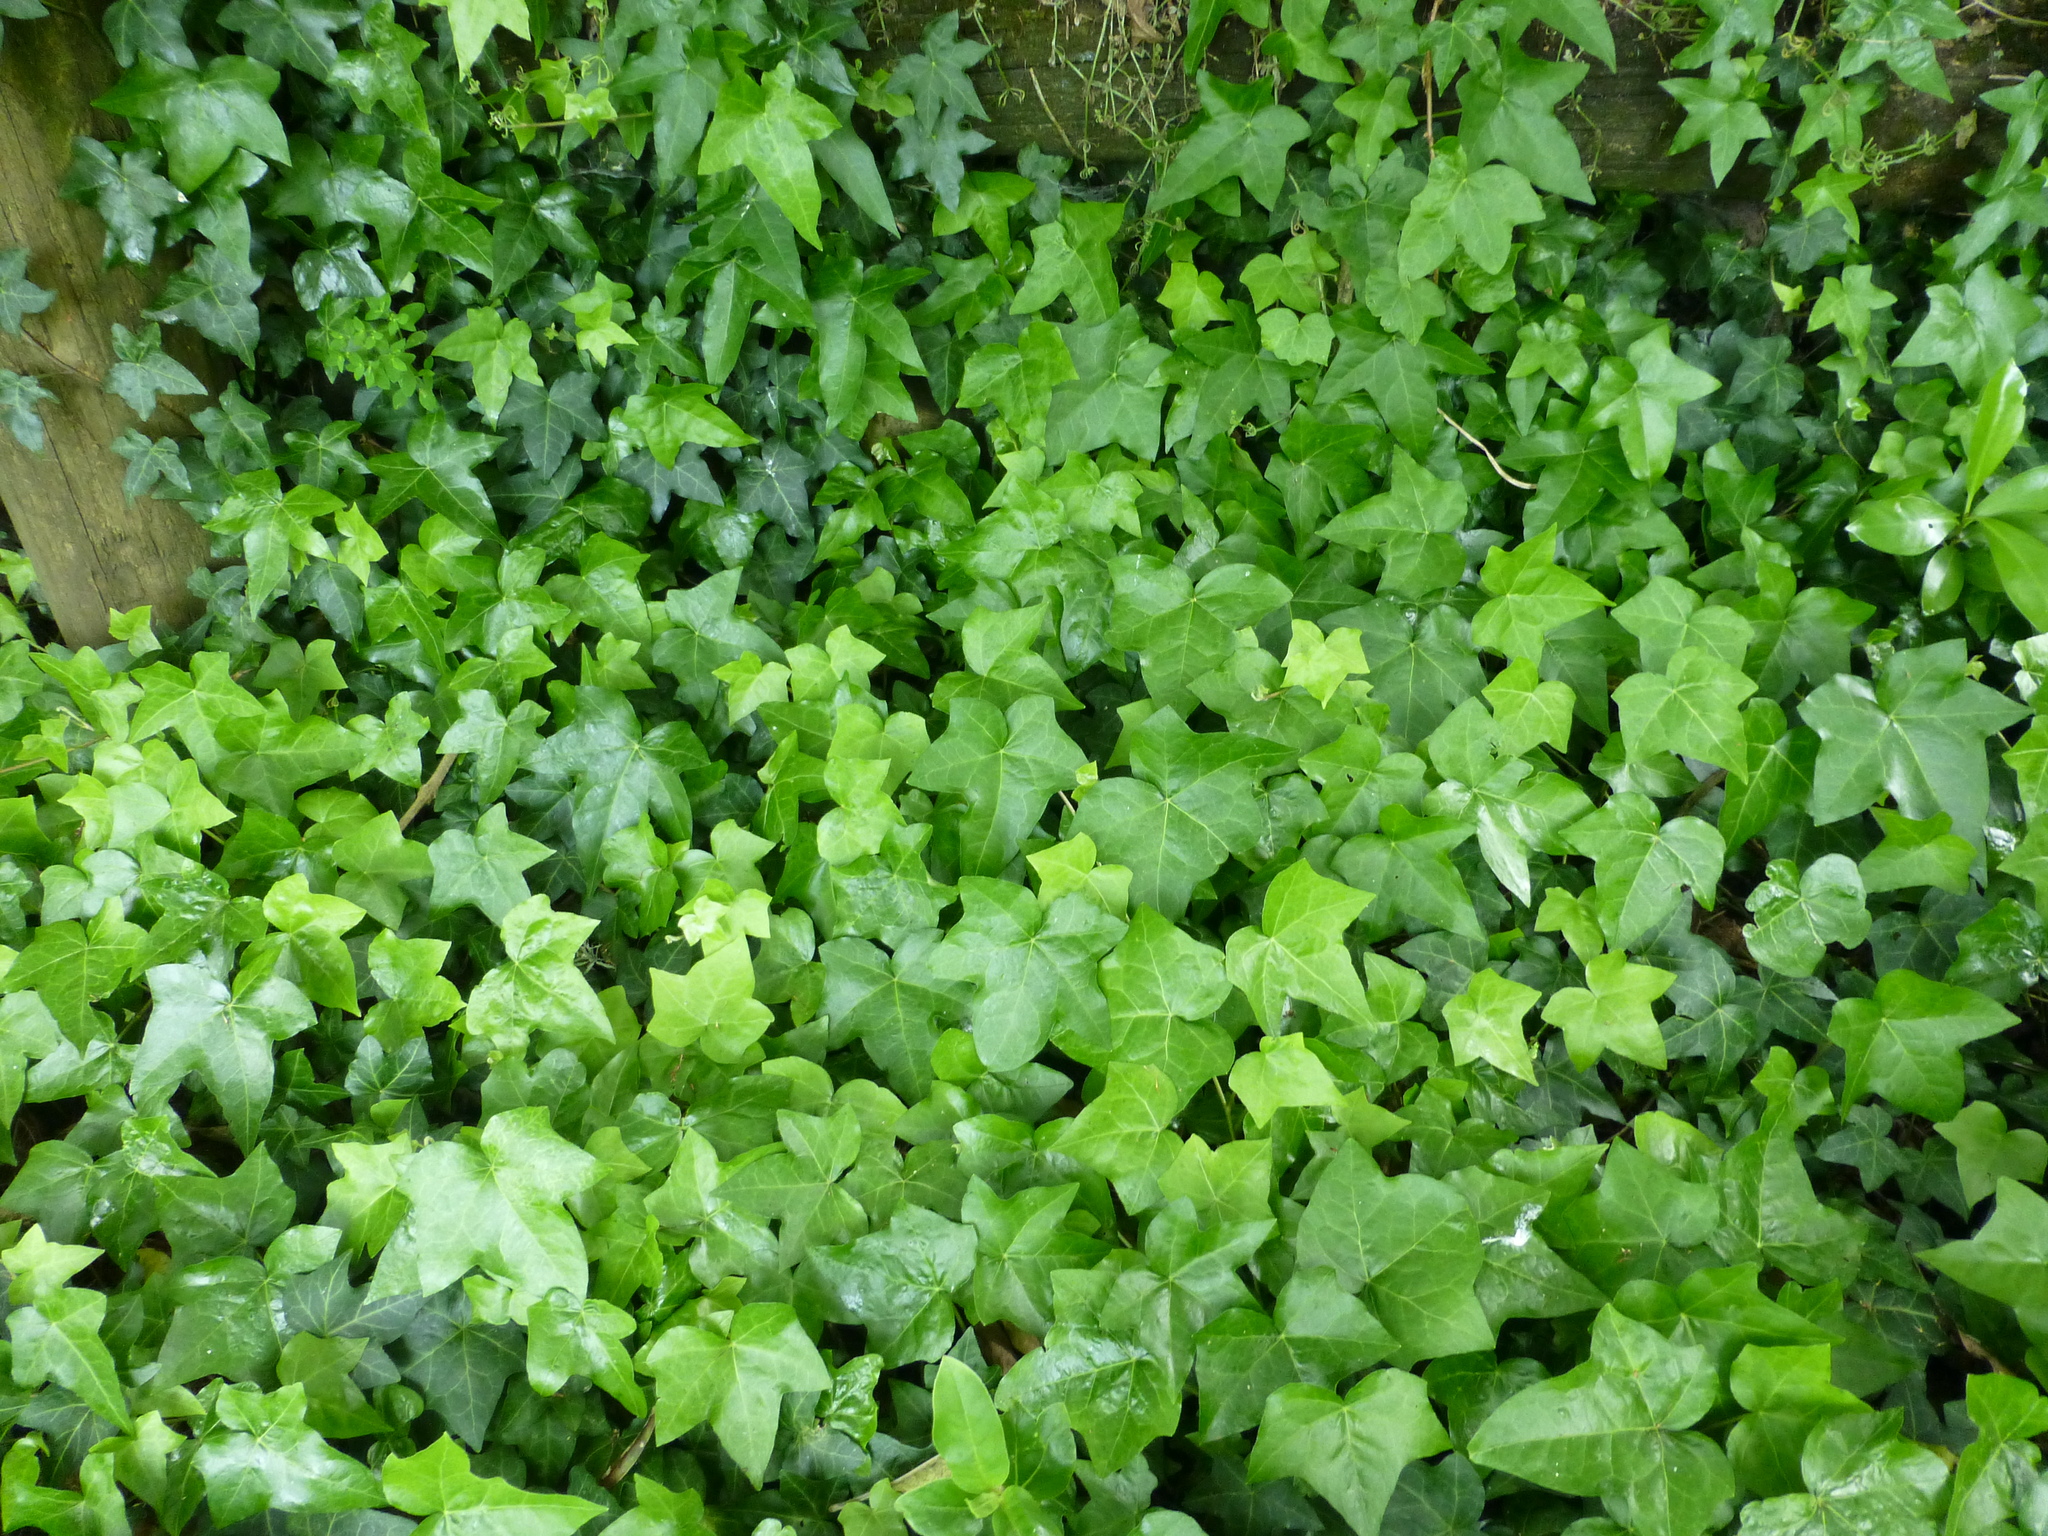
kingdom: Plantae
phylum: Tracheophyta
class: Magnoliopsida
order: Apiales
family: Araliaceae
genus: Hedera
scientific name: Hedera helix
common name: Ivy
